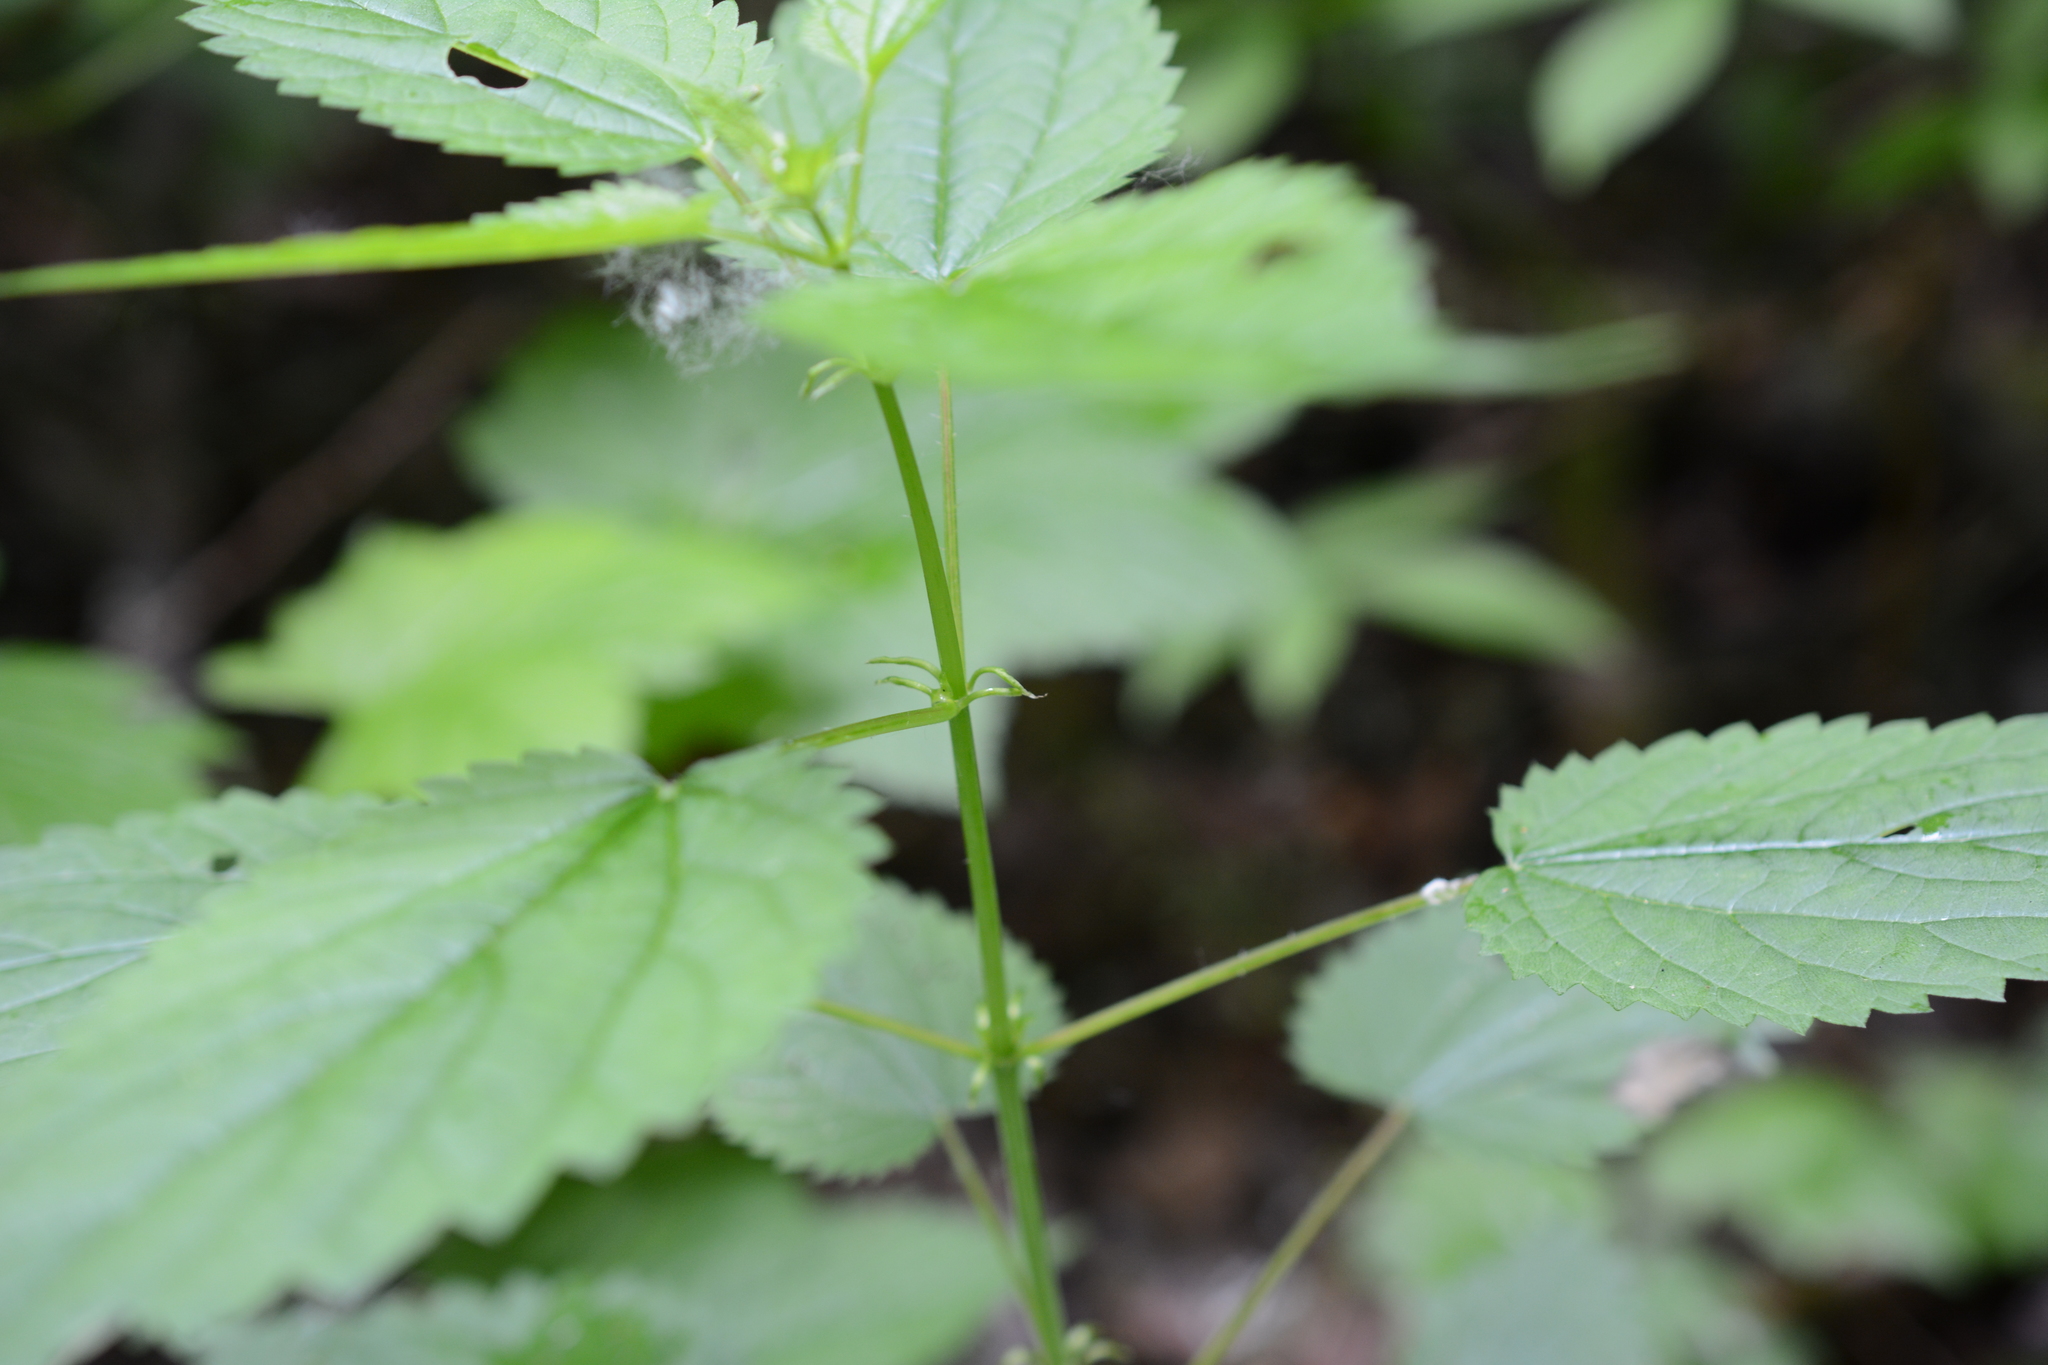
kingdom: Plantae
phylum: Tracheophyta
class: Magnoliopsida
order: Rosales
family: Urticaceae
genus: Urtica
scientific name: Urtica dioica
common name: Common nettle
